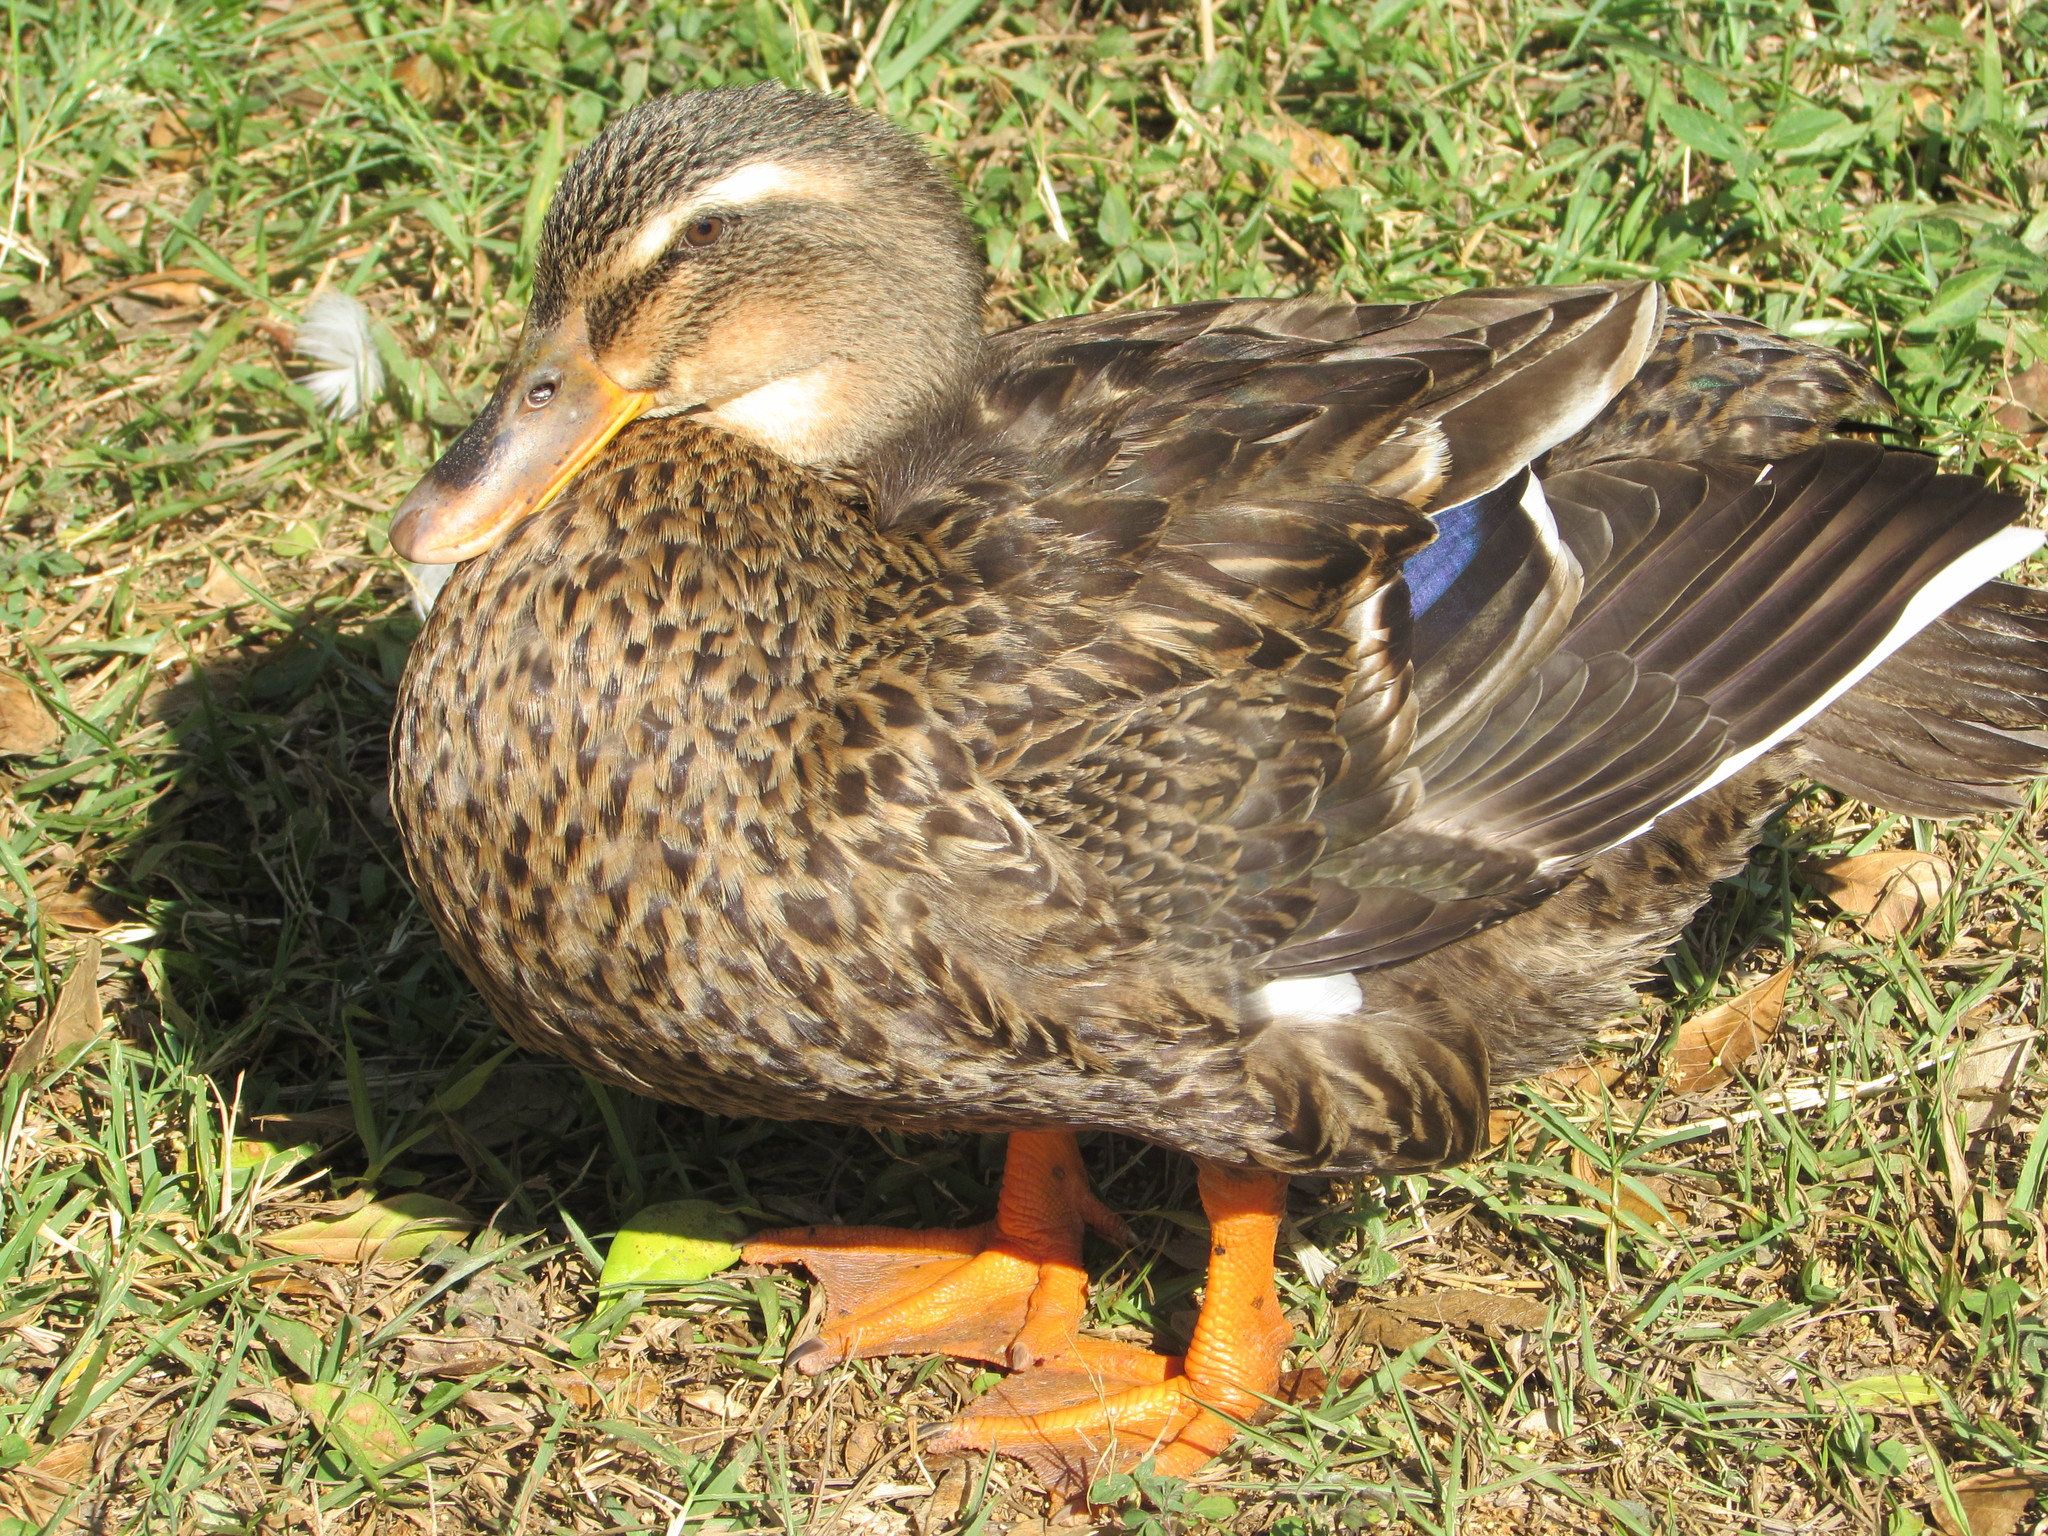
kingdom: Animalia
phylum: Chordata
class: Aves
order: Anseriformes
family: Anatidae
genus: Anas
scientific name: Anas platyrhynchos
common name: Mallard
